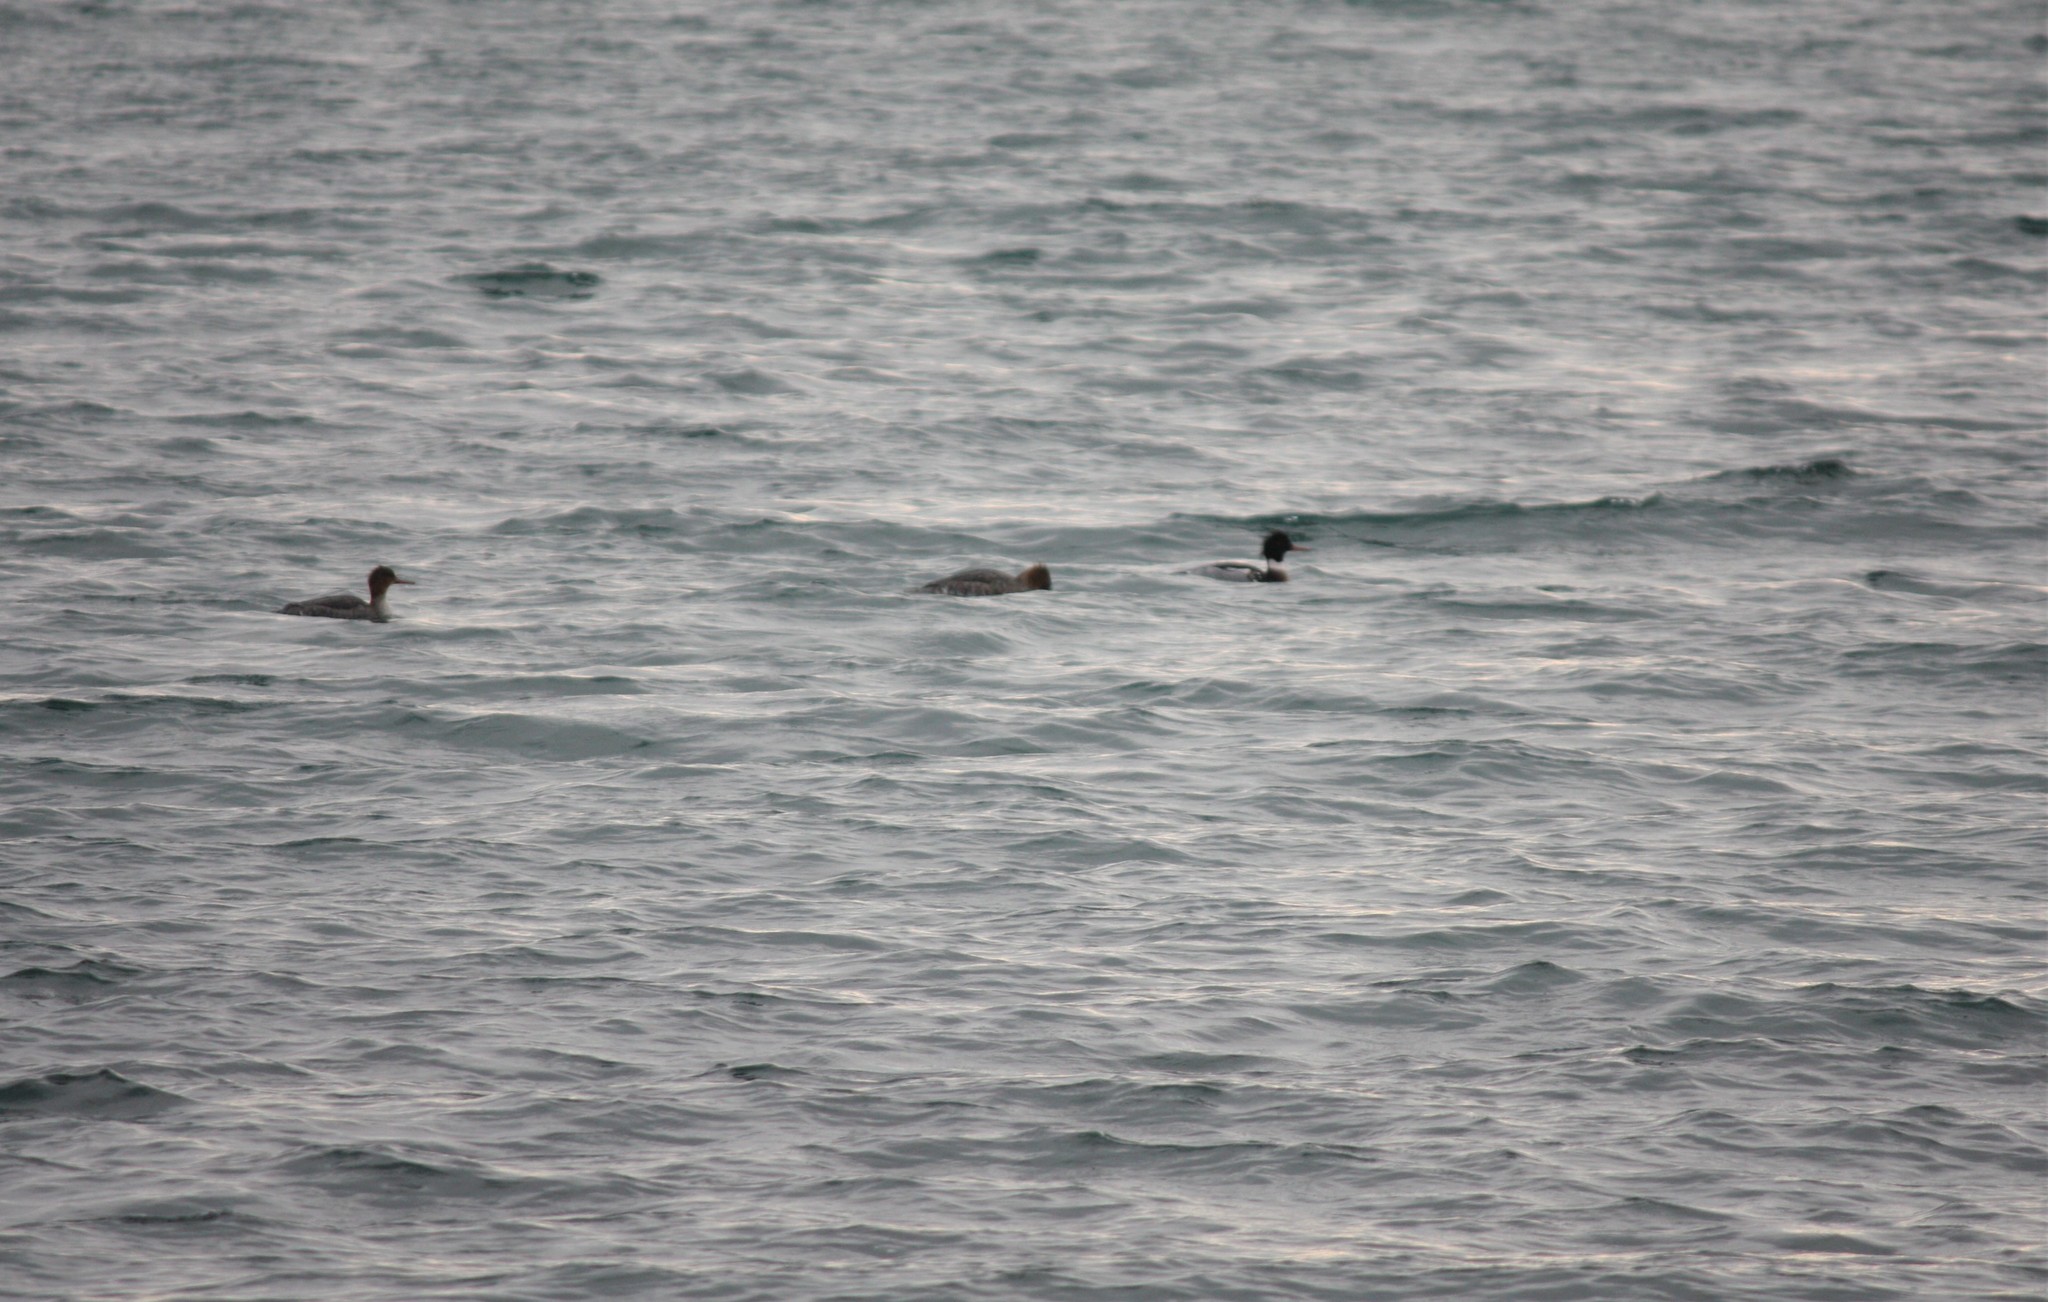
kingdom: Animalia
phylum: Chordata
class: Aves
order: Anseriformes
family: Anatidae
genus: Mergus
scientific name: Mergus serrator
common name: Red-breasted merganser
